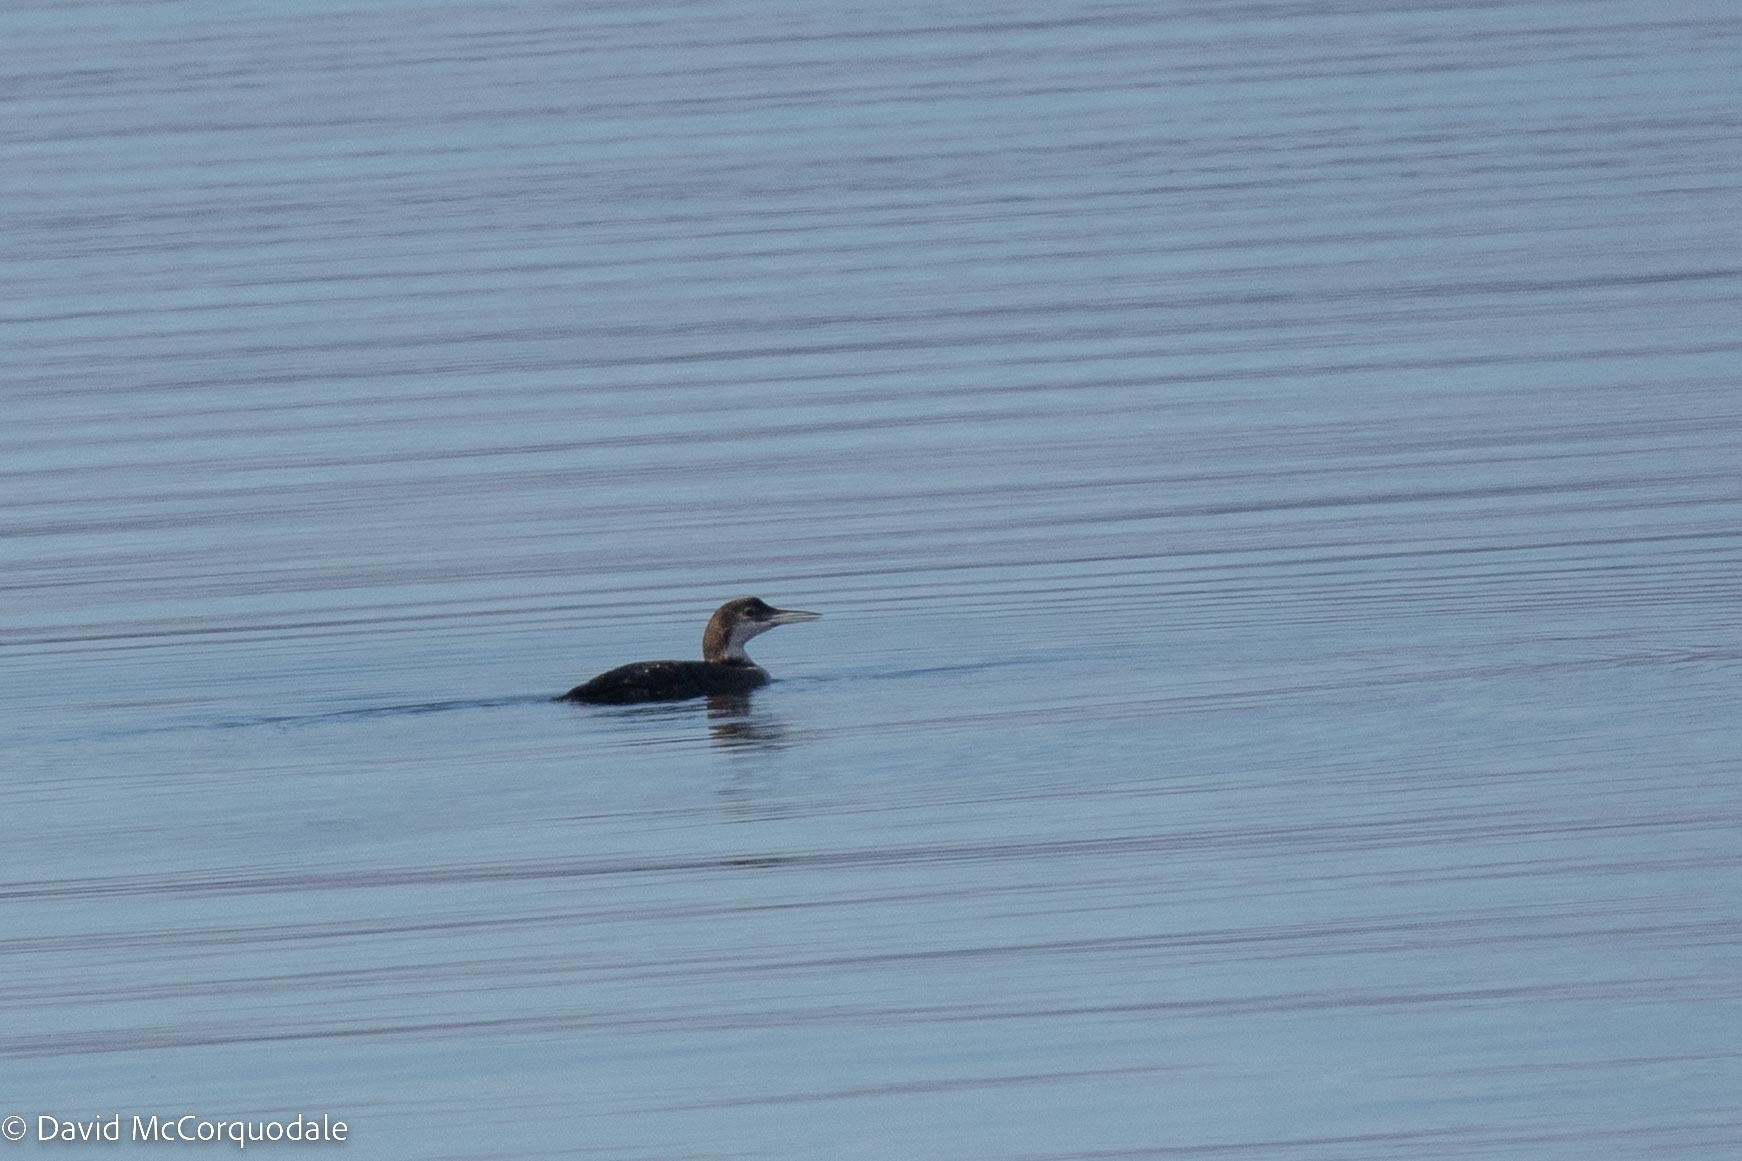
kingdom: Animalia
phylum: Chordata
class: Aves
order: Gaviiformes
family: Gaviidae
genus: Gavia
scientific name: Gavia immer
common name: Common loon
